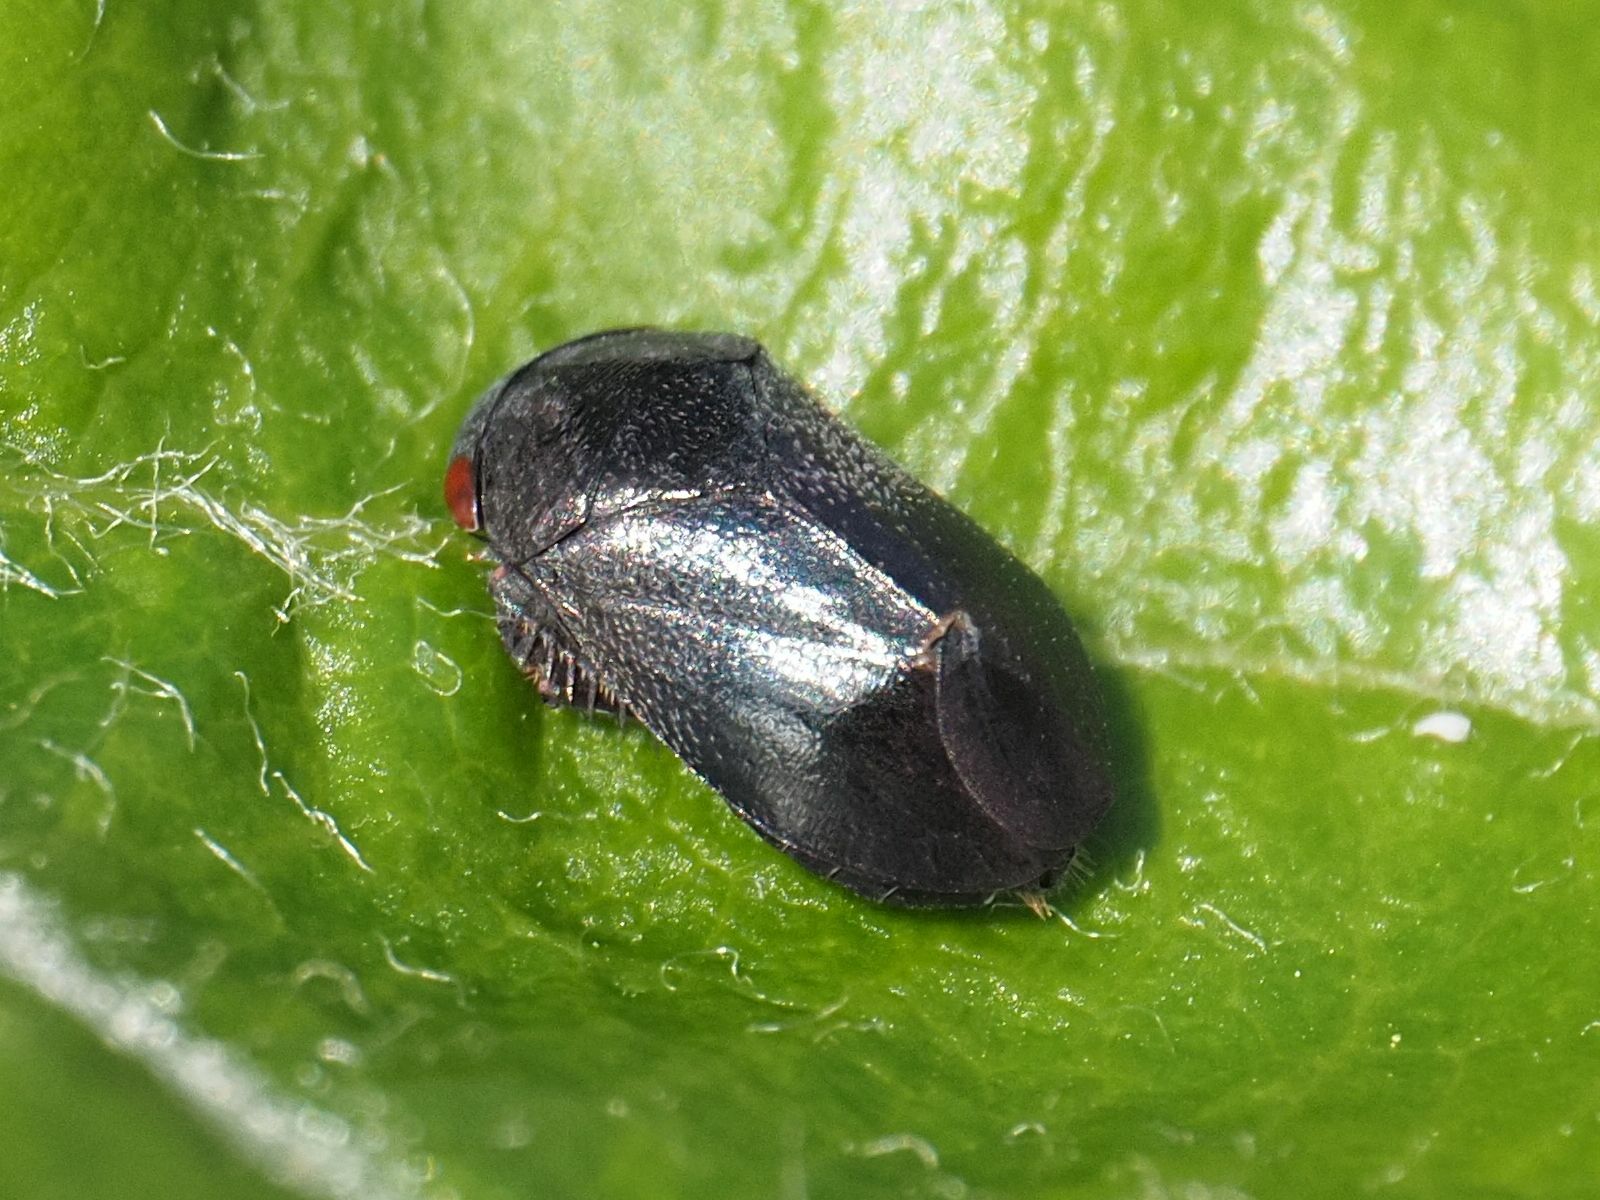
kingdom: Animalia
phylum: Arthropoda
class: Insecta
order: Hemiptera
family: Cicadellidae
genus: Penthimia
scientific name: Penthimia nigra
